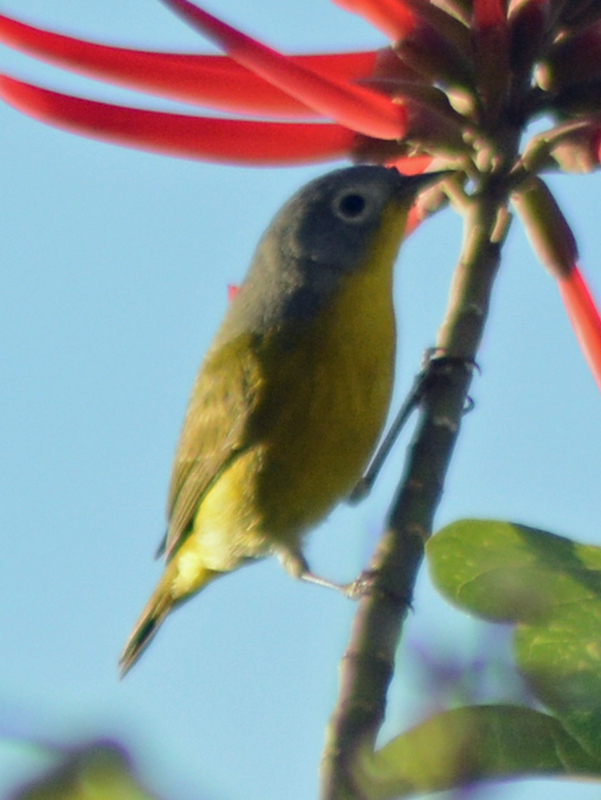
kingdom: Animalia
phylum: Chordata
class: Aves
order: Passeriformes
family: Parulidae
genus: Leiothlypis
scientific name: Leiothlypis ruficapilla
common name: Nashville warbler
